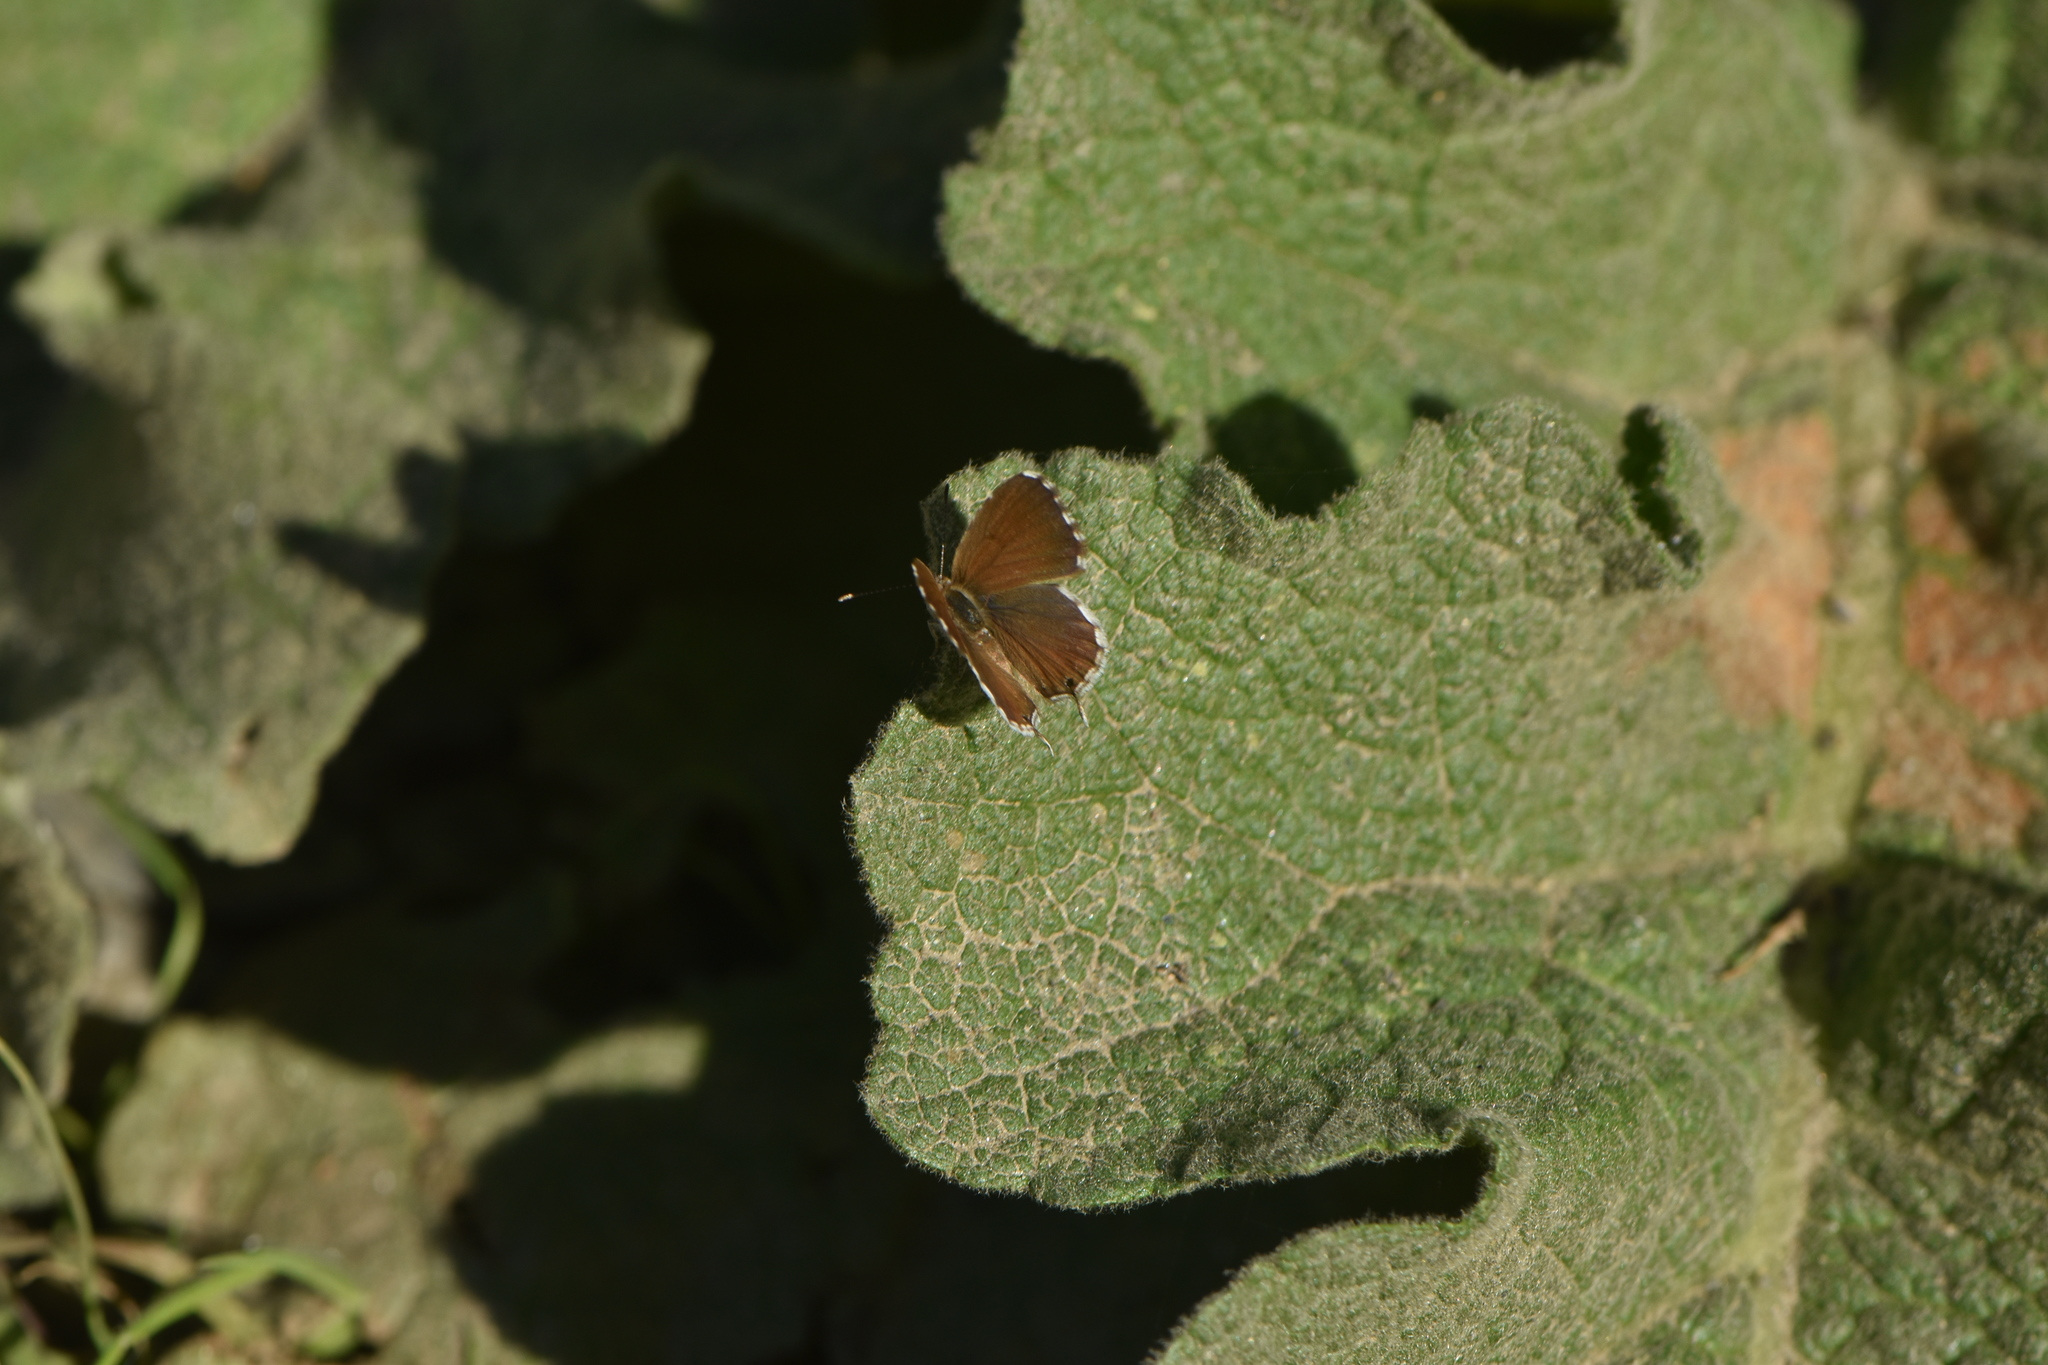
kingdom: Animalia
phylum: Arthropoda
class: Insecta
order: Lepidoptera
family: Lycaenidae
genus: Cacyreus
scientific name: Cacyreus marshalli
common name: Geranium bronze
